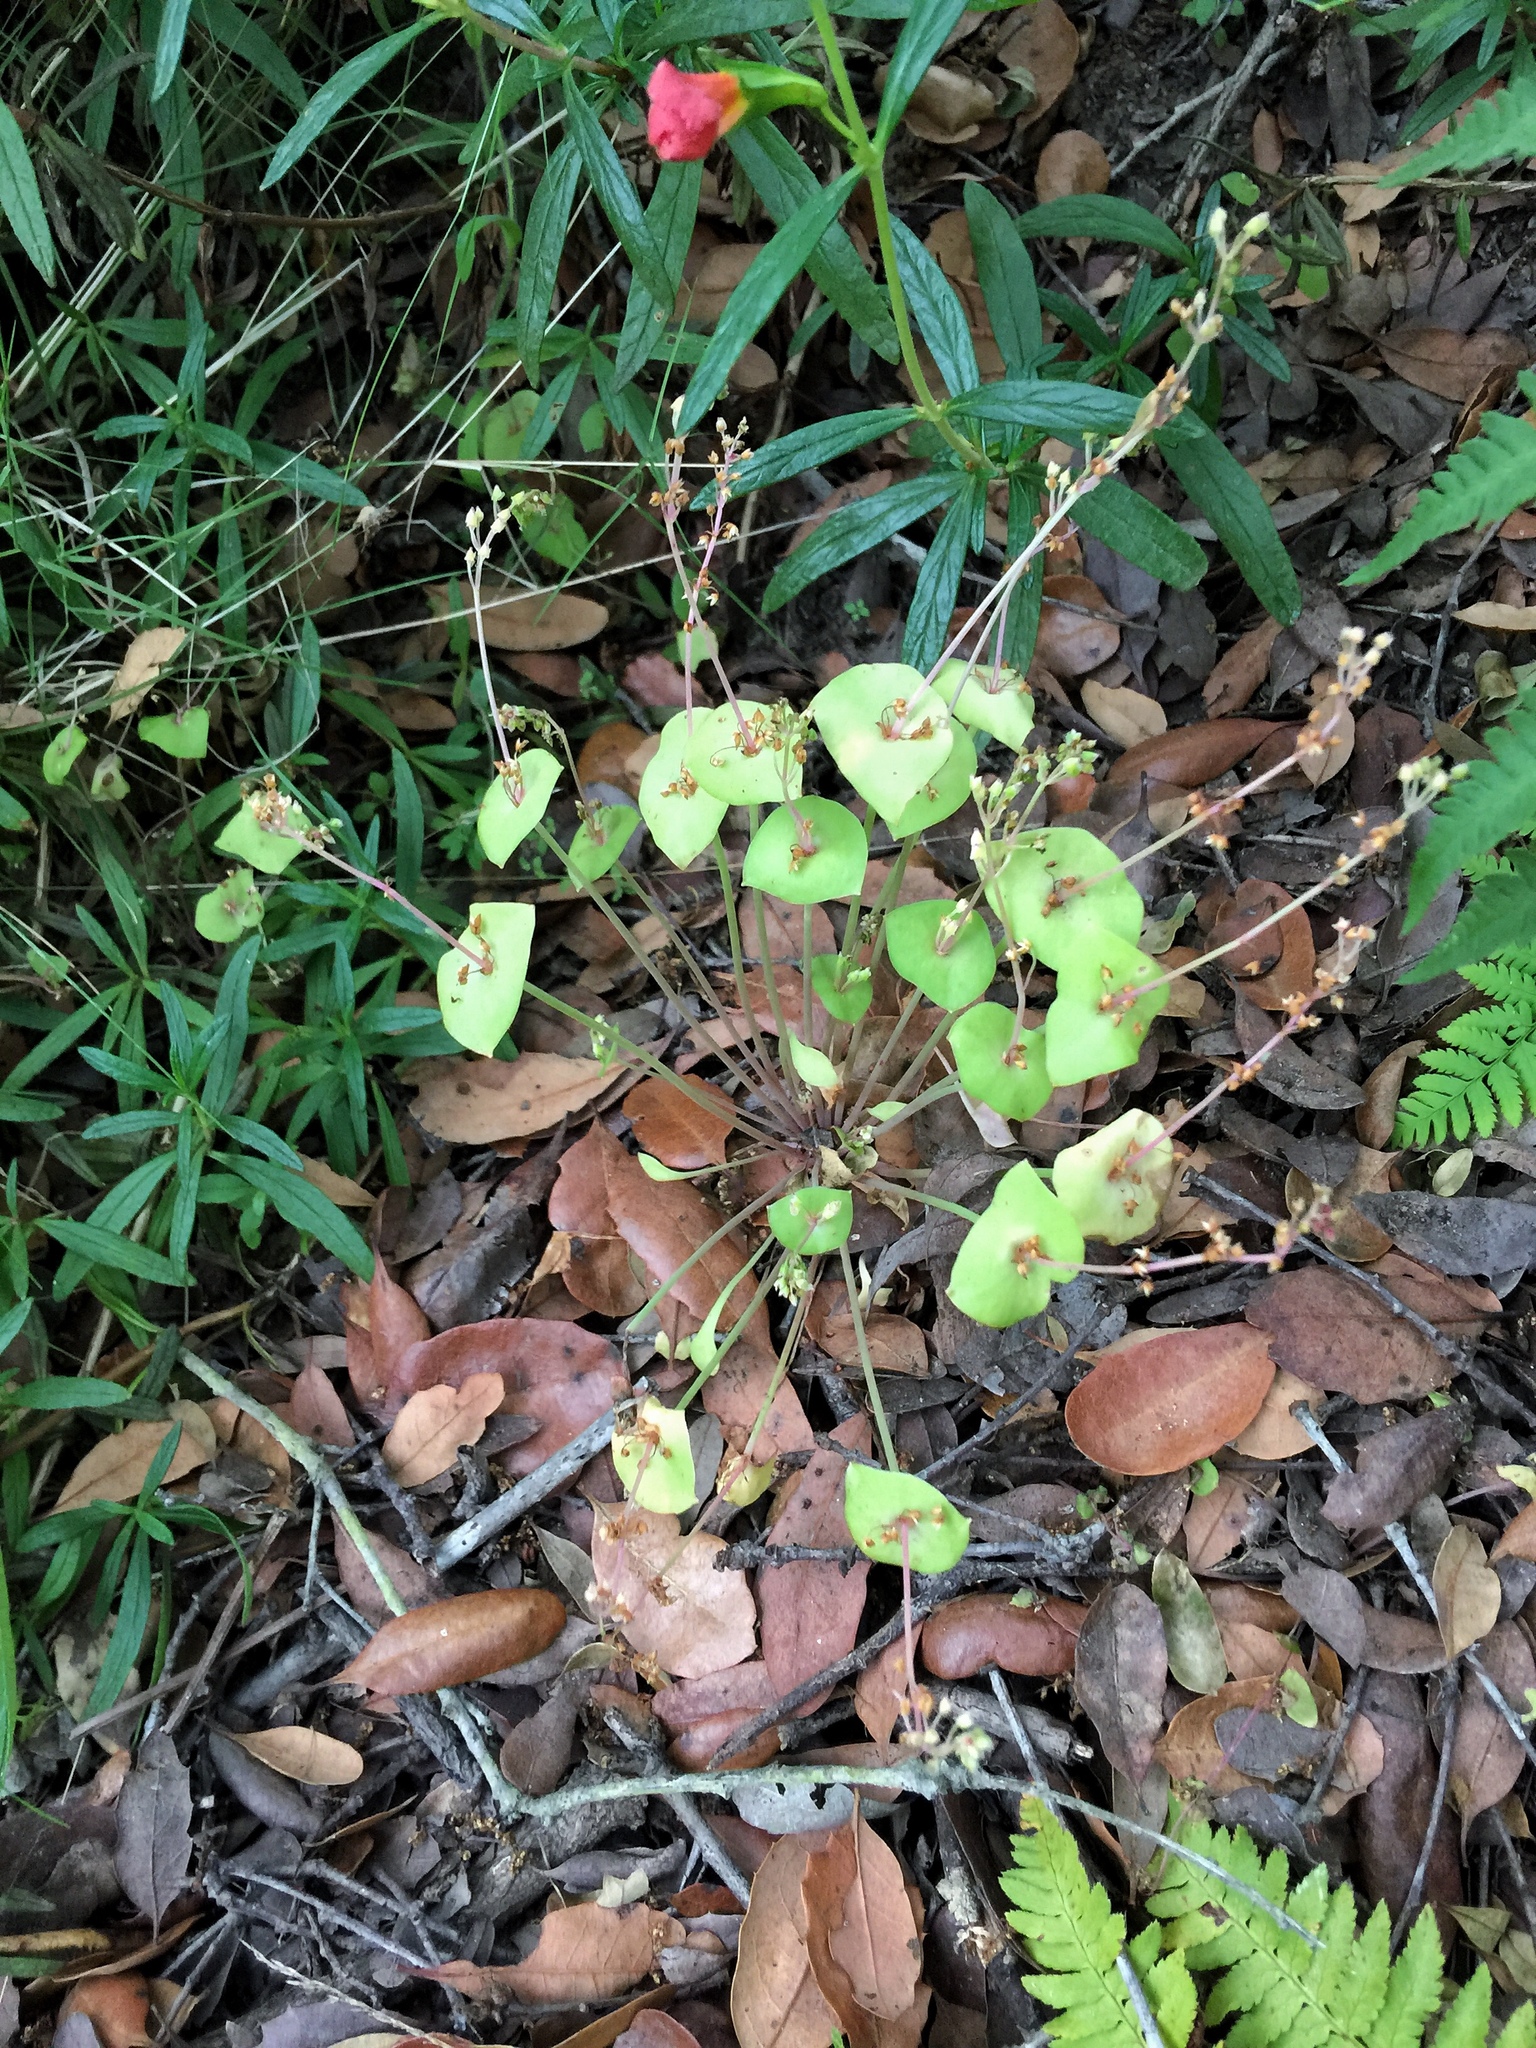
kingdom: Plantae
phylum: Tracheophyta
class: Magnoliopsida
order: Caryophyllales
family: Montiaceae
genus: Claytonia
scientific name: Claytonia perfoliata
